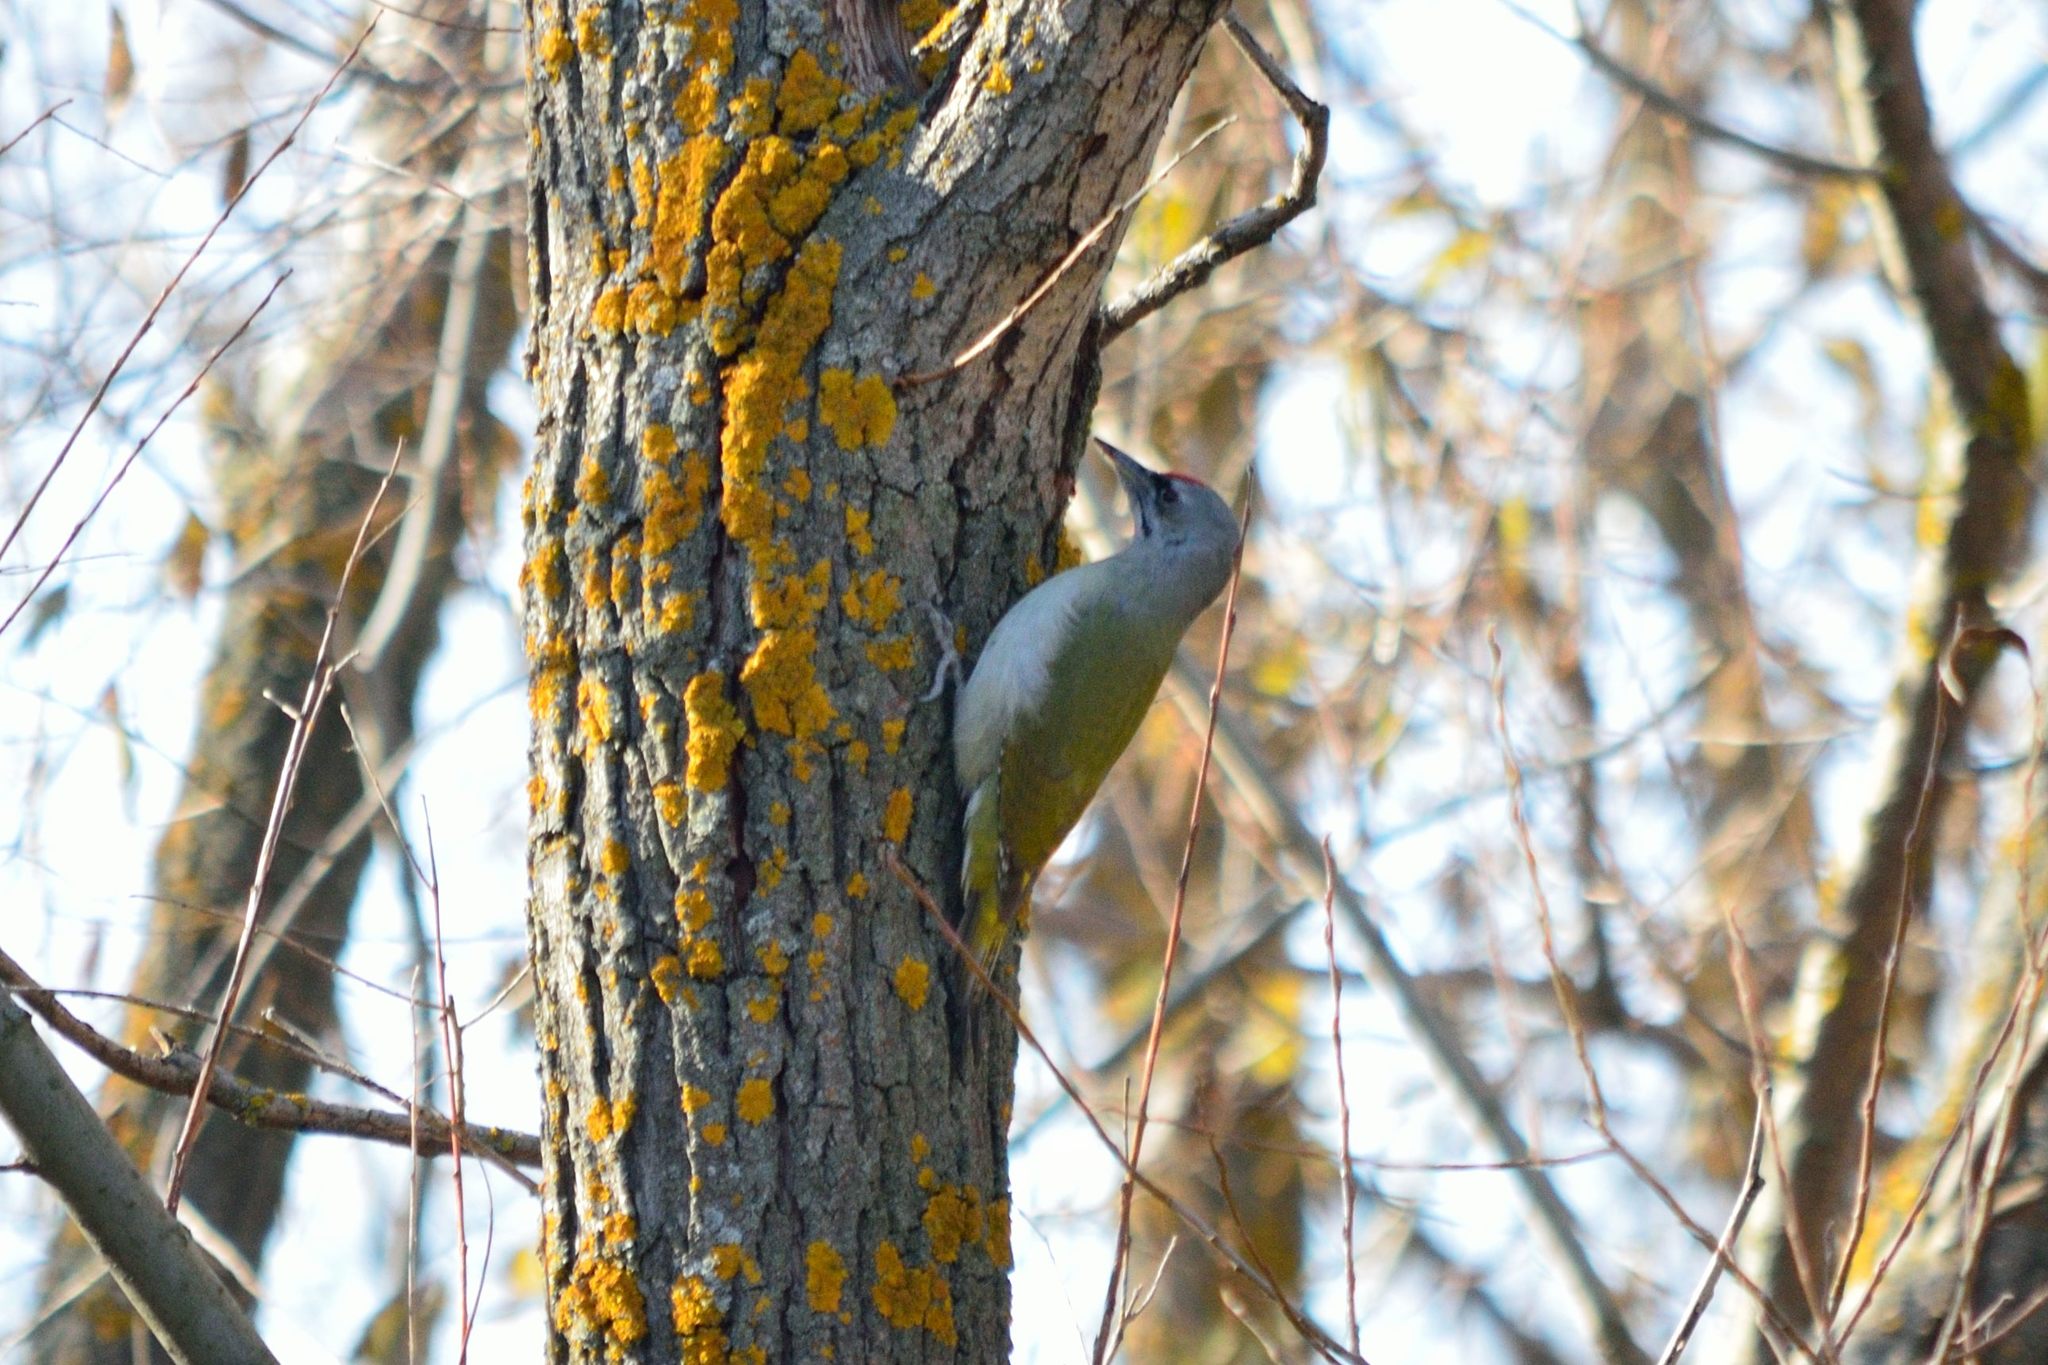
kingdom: Animalia
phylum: Chordata
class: Aves
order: Piciformes
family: Picidae
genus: Picus
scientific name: Picus canus
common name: Grey-headed woodpecker
